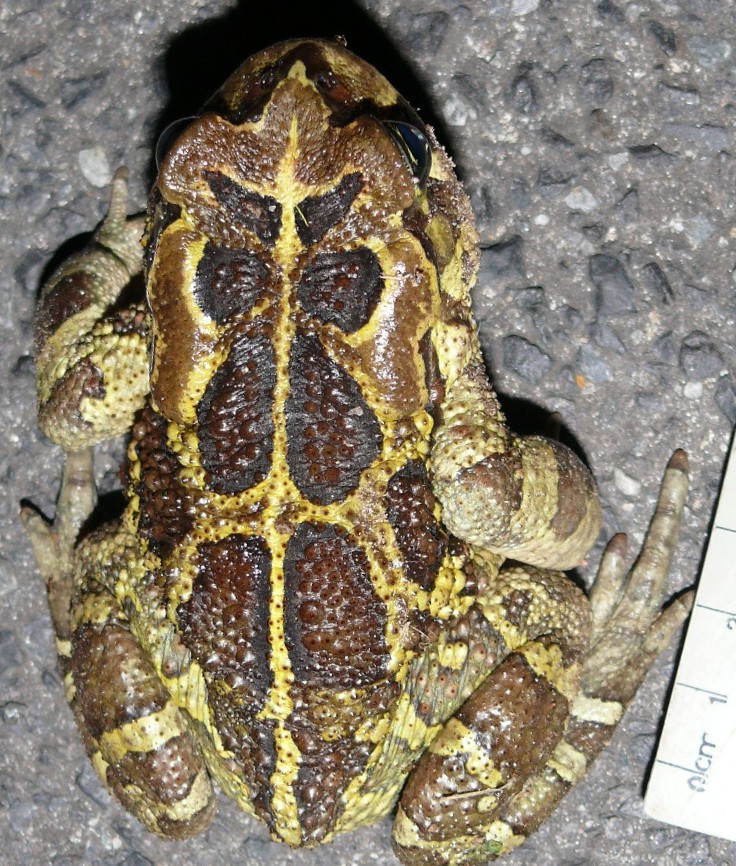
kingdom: Animalia
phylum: Chordata
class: Amphibia
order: Anura
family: Bufonidae
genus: Sclerophrys
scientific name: Sclerophrys pantherina
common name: Panther toad
